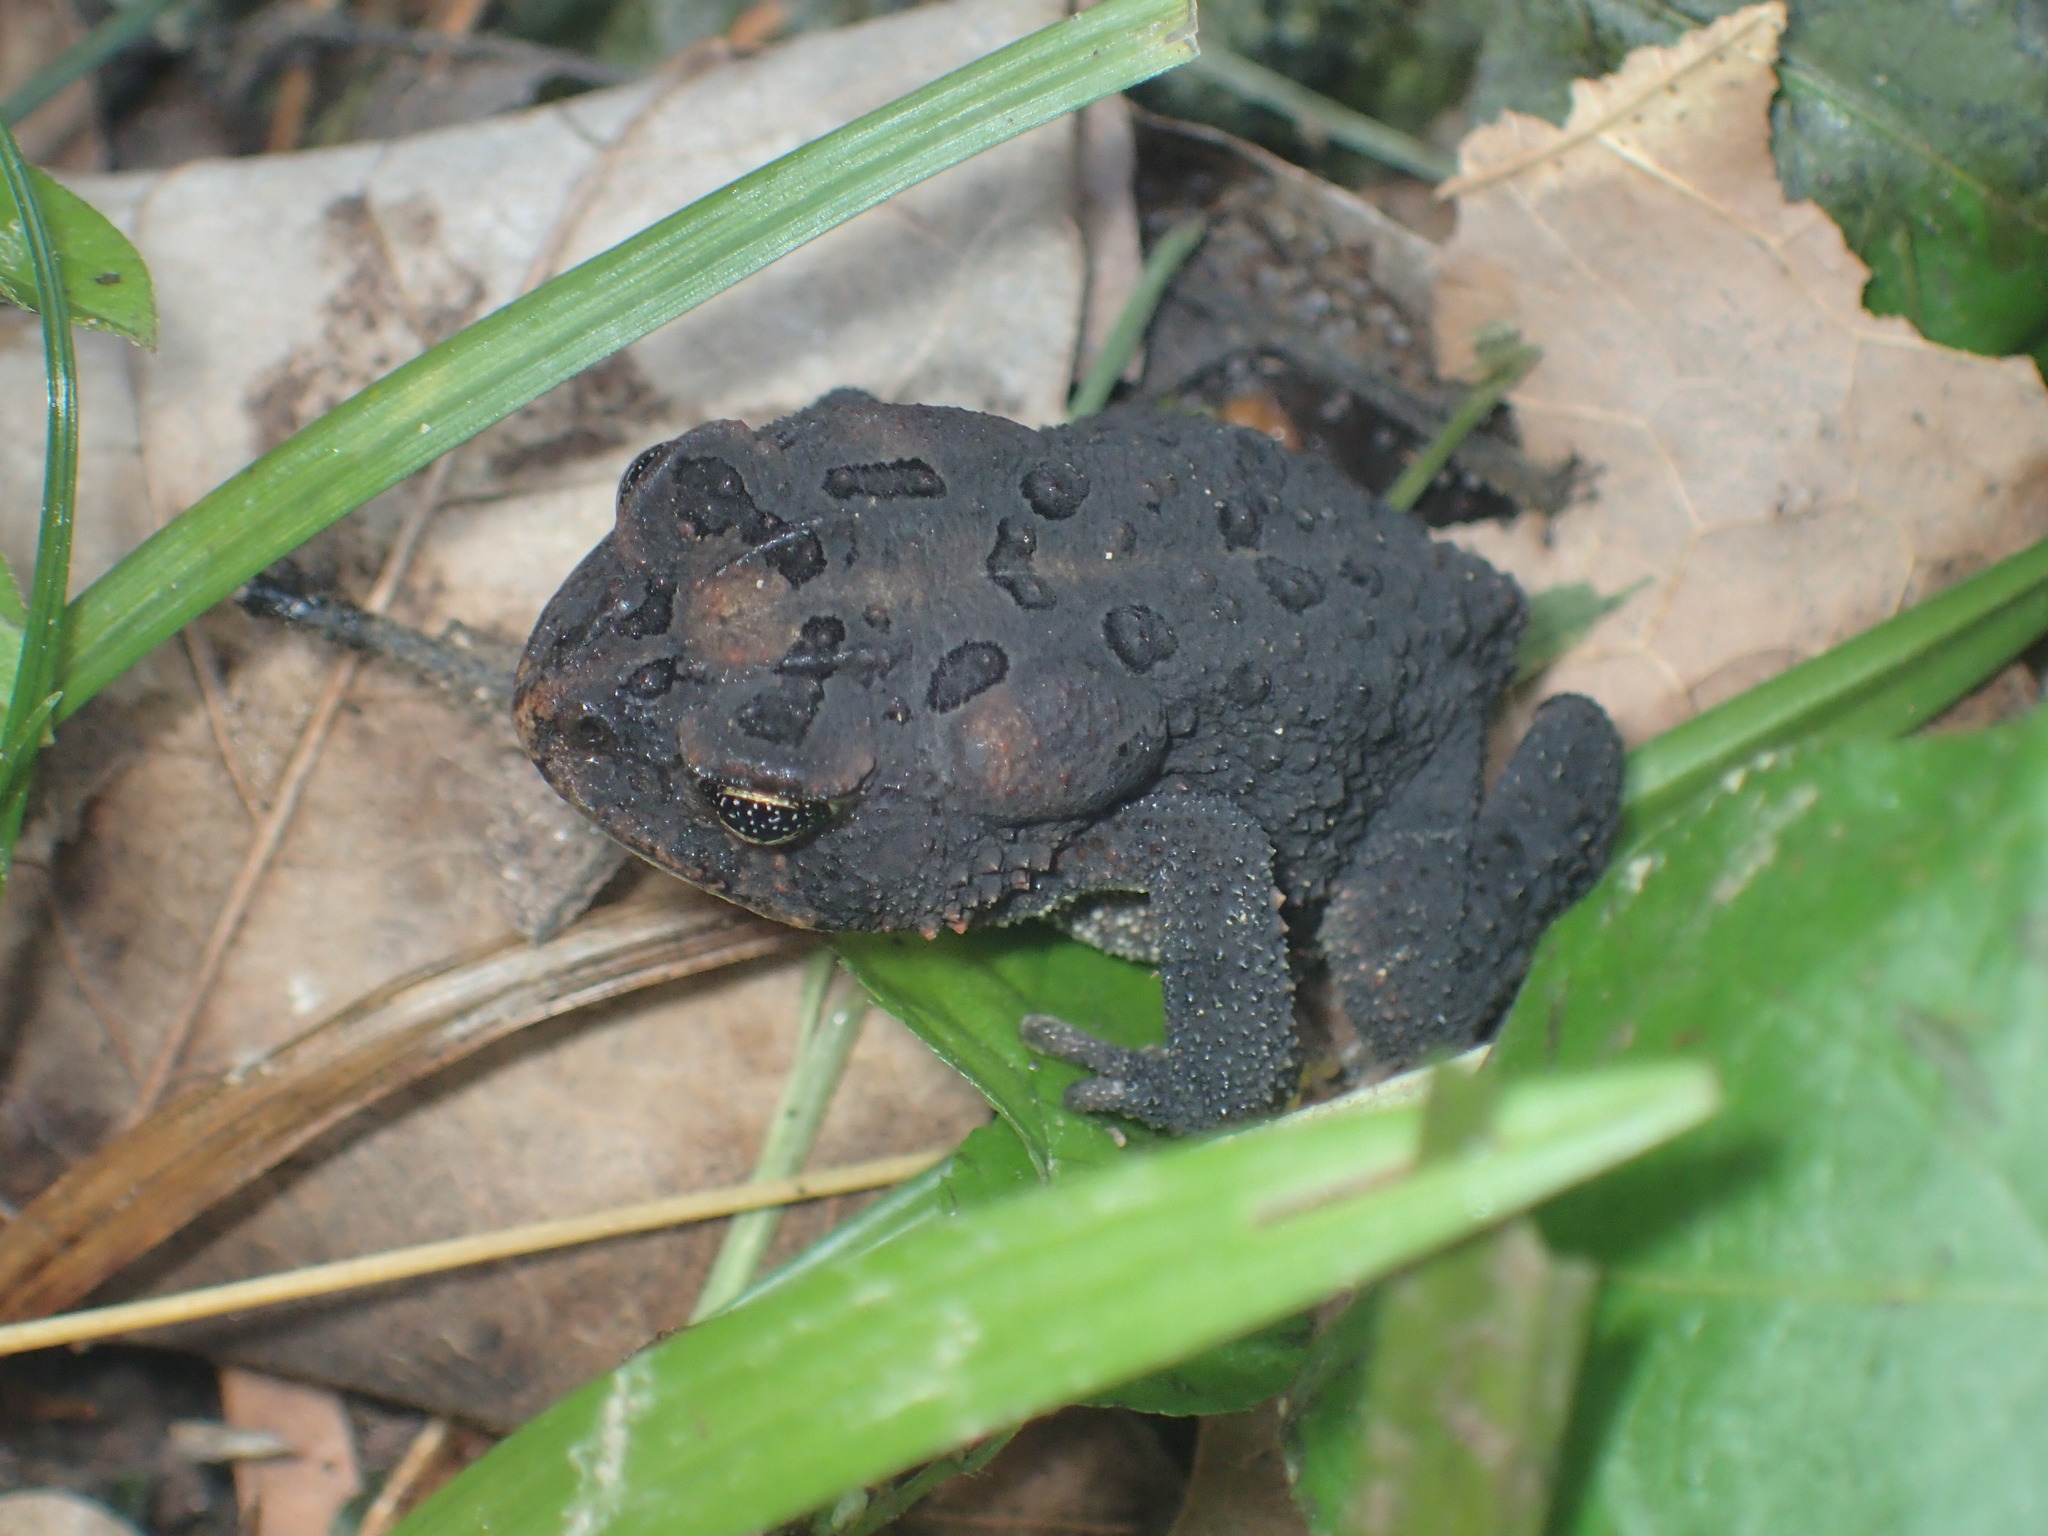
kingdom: Animalia
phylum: Chordata
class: Amphibia
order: Anura
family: Bufonidae
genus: Anaxyrus
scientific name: Anaxyrus terrestris
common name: Southern toad
